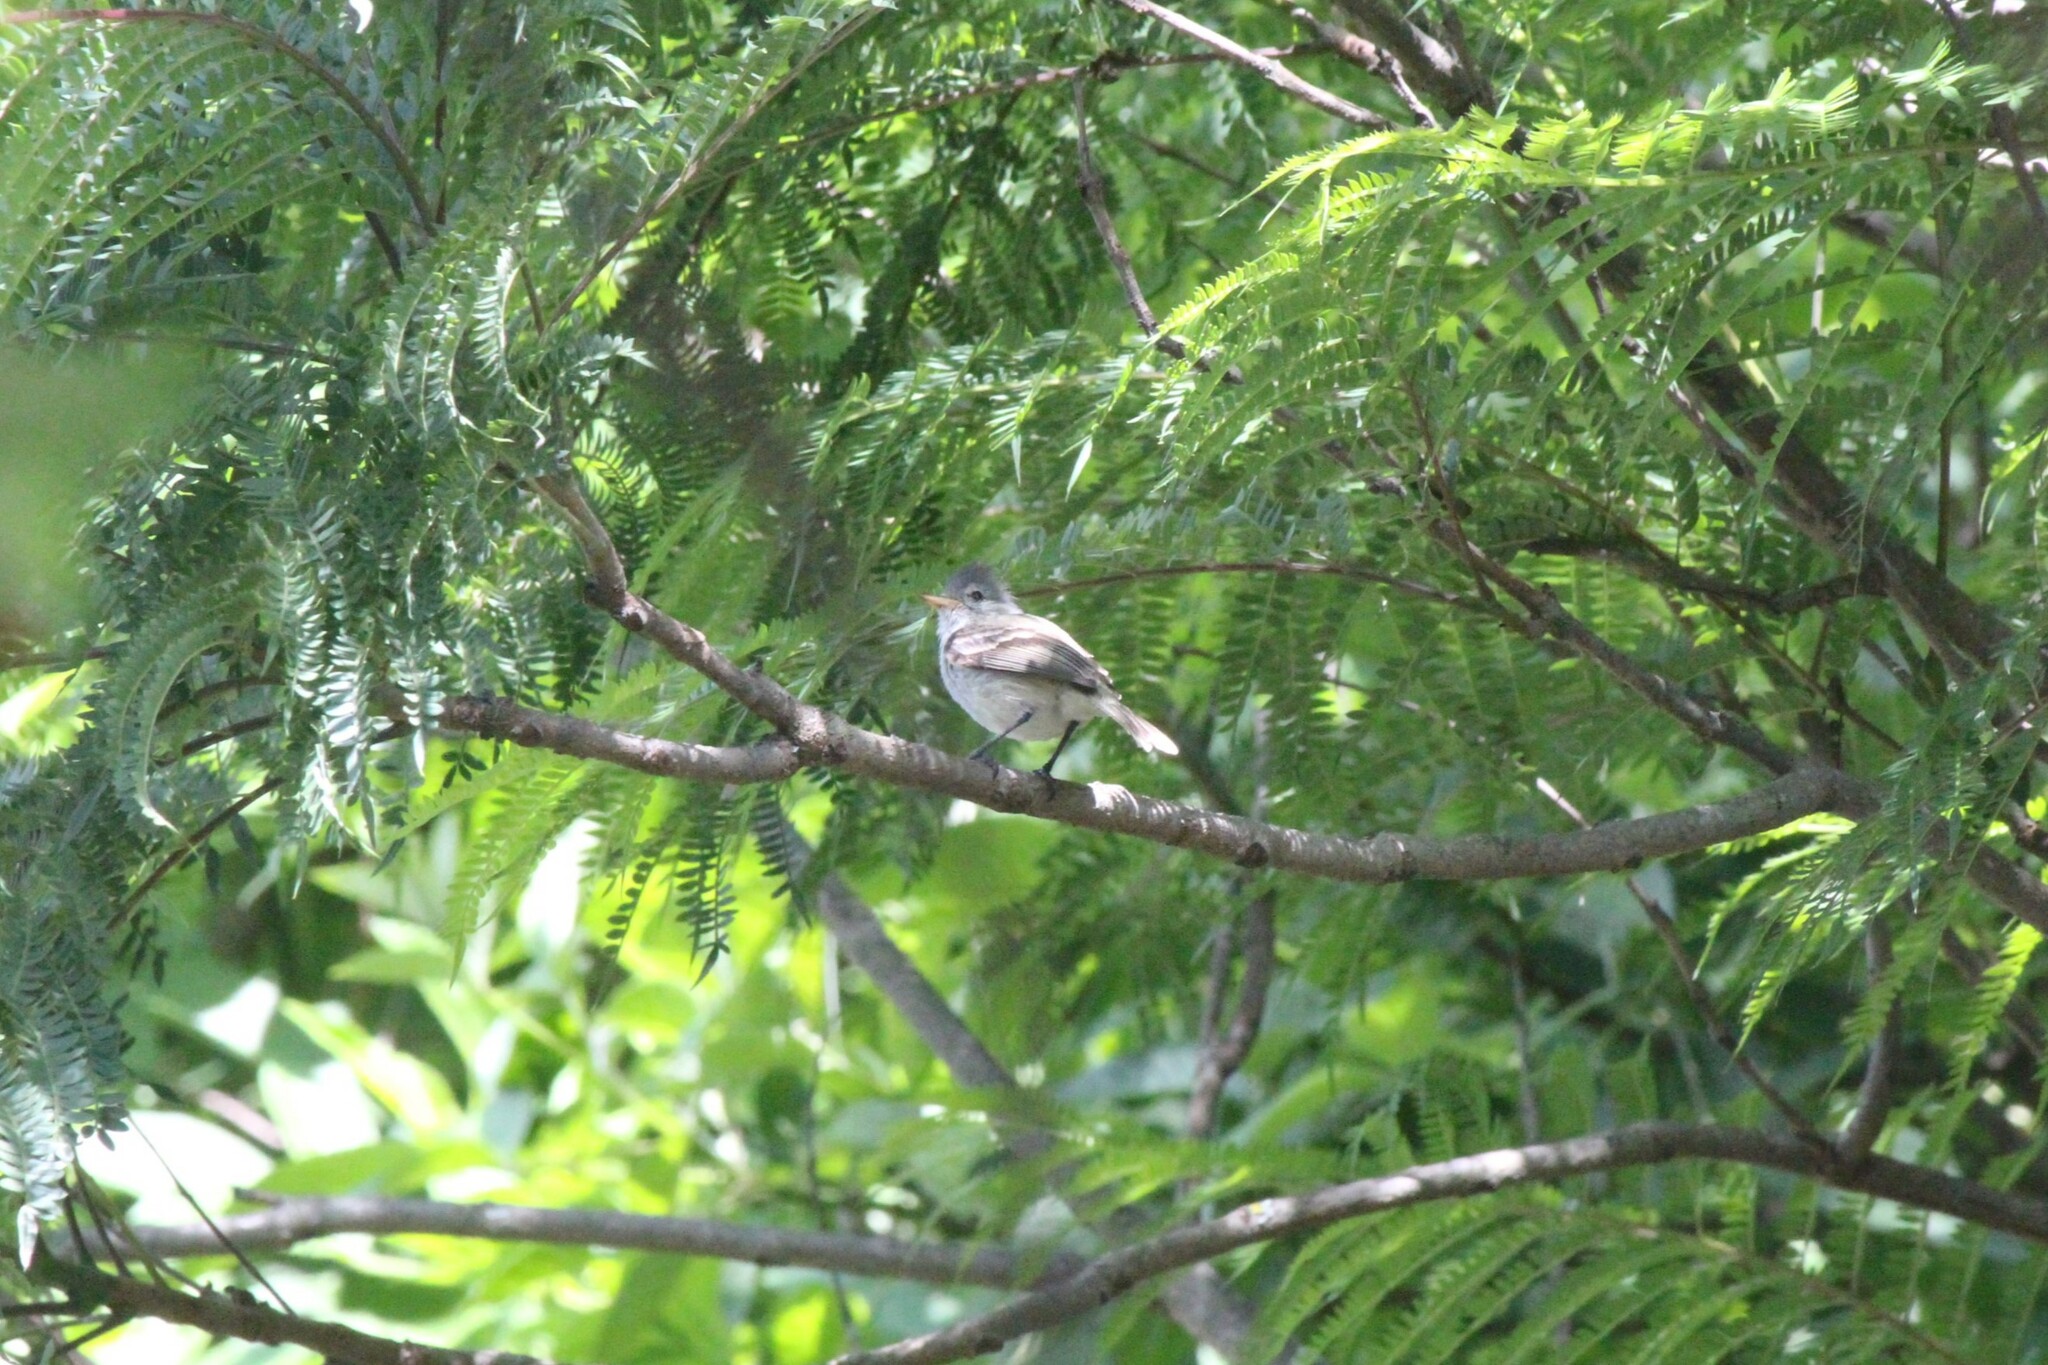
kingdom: Animalia
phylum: Chordata
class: Aves
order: Passeriformes
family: Tyrannidae
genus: Camptostoma
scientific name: Camptostoma obsoletum
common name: Southern beardless-tyrannulet
